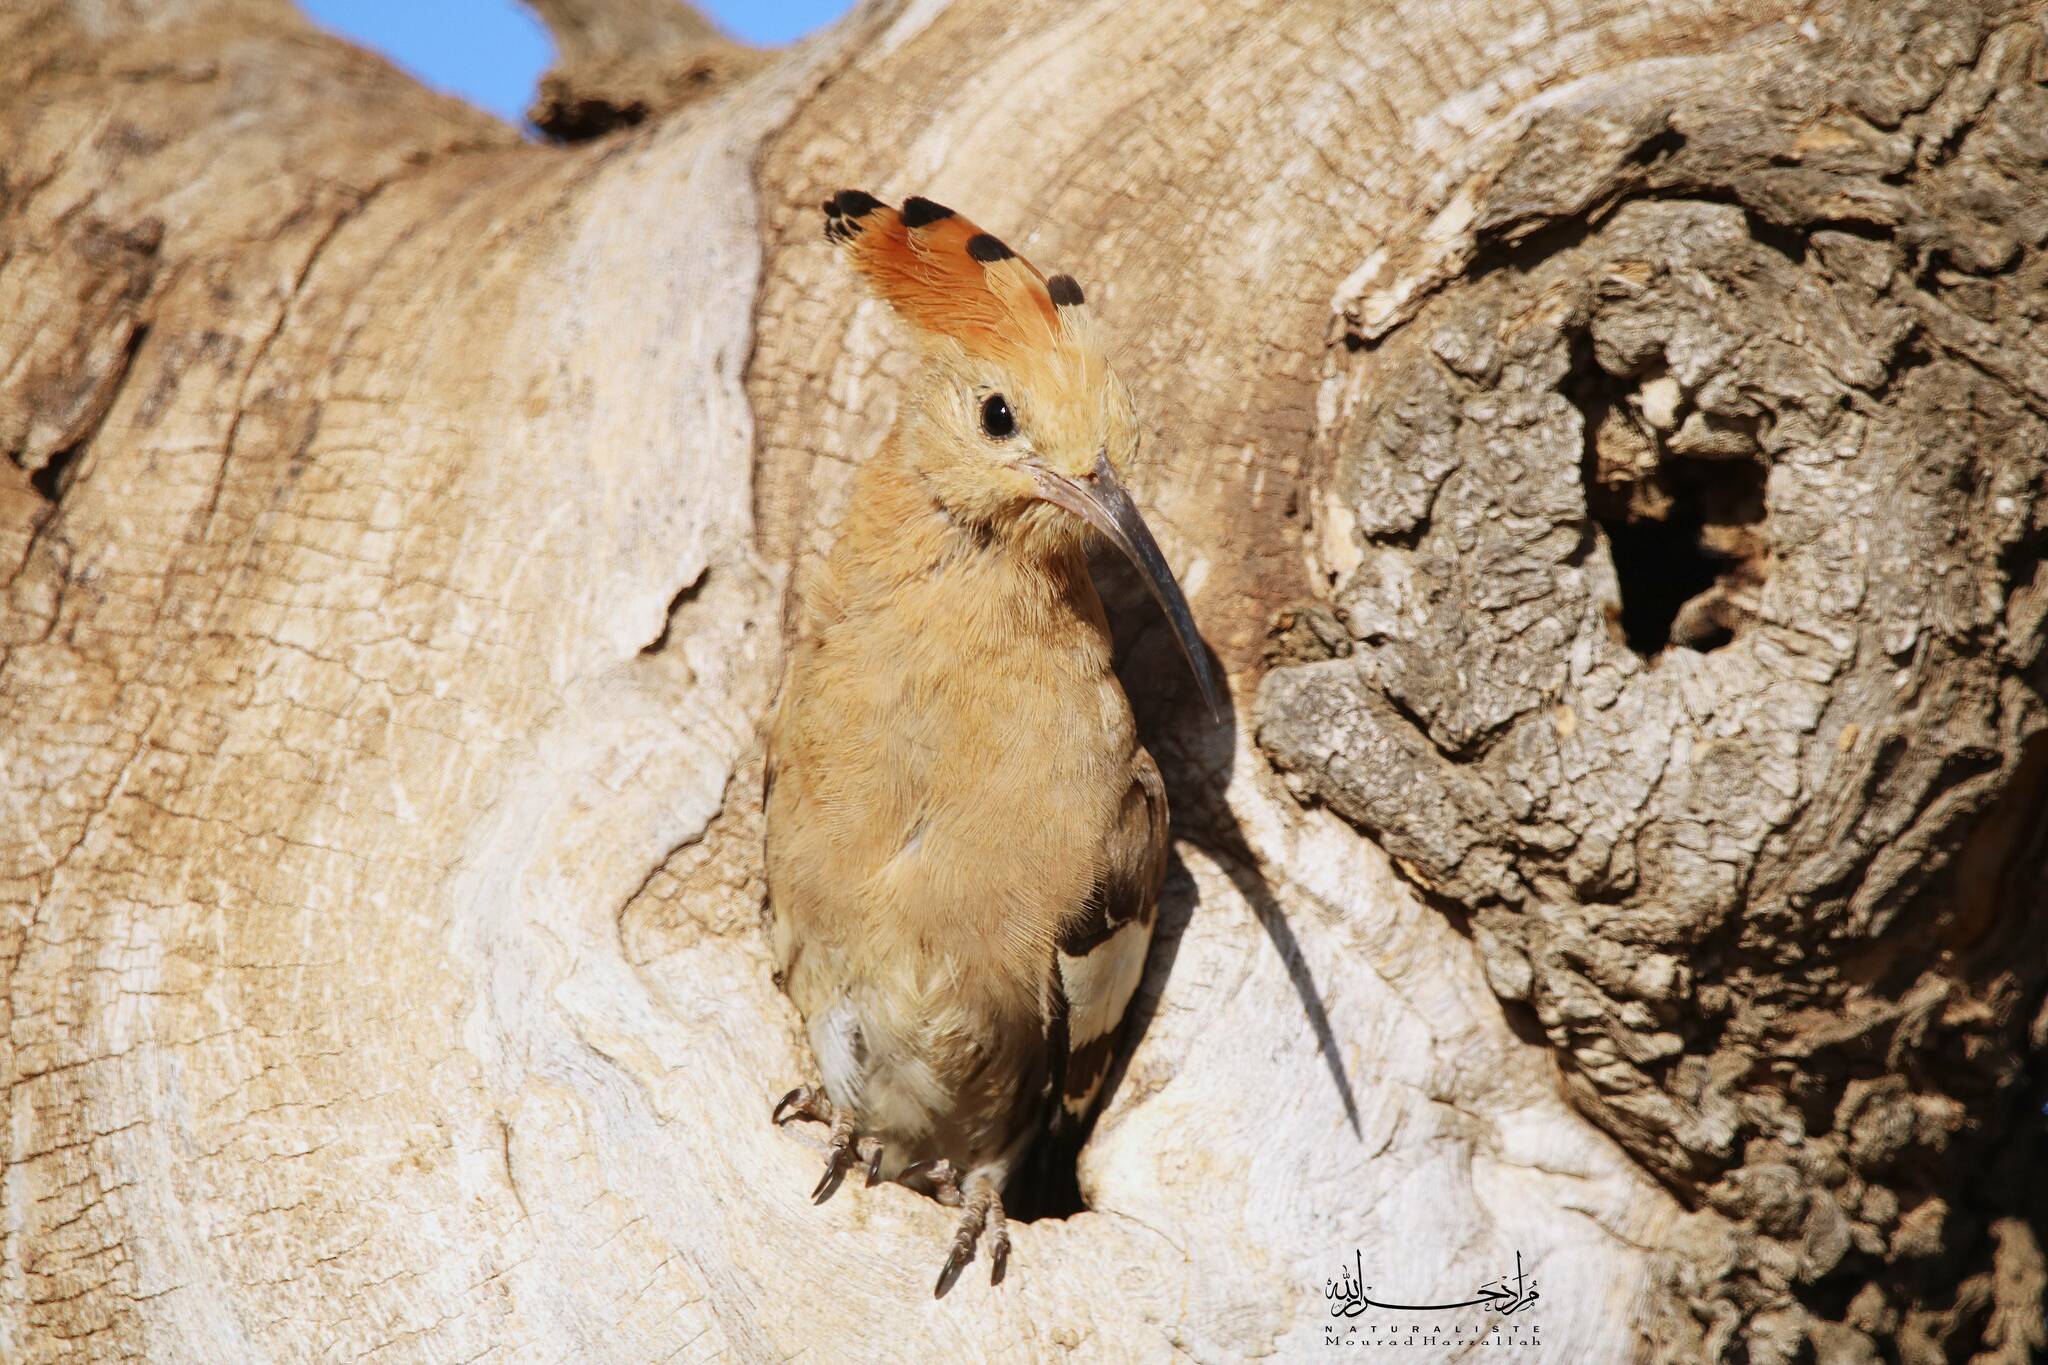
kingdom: Animalia
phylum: Chordata
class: Aves
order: Bucerotiformes
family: Upupidae
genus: Upupa
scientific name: Upupa epops
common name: Eurasian hoopoe
